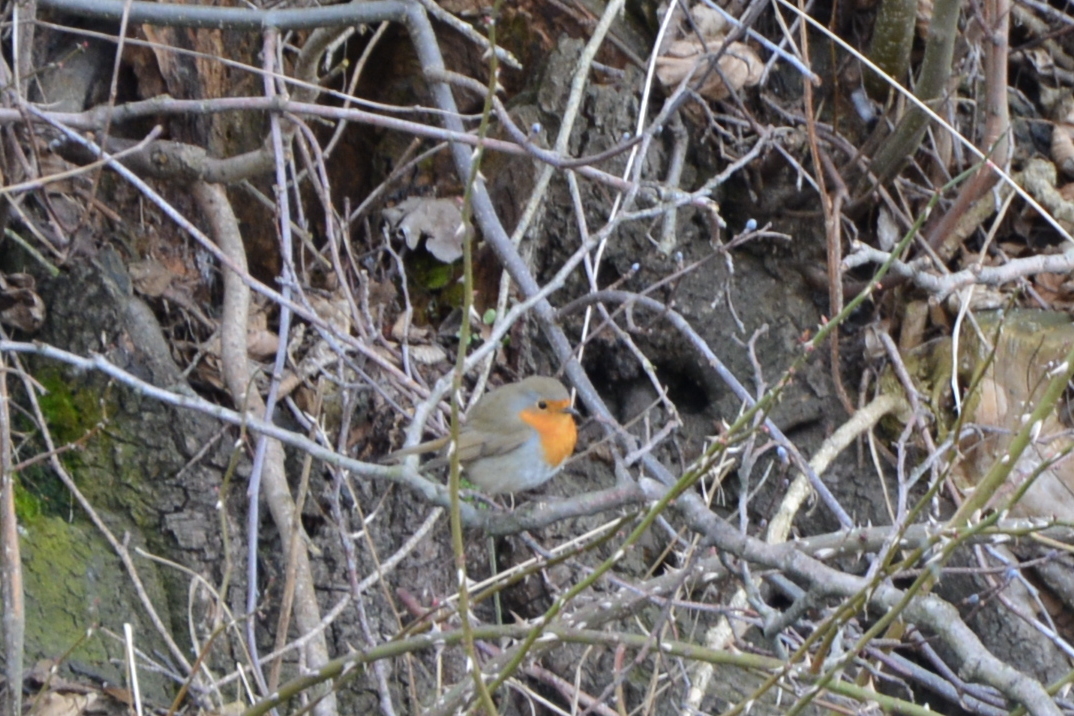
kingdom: Animalia
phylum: Chordata
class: Aves
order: Passeriformes
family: Muscicapidae
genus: Erithacus
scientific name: Erithacus rubecula
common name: European robin
